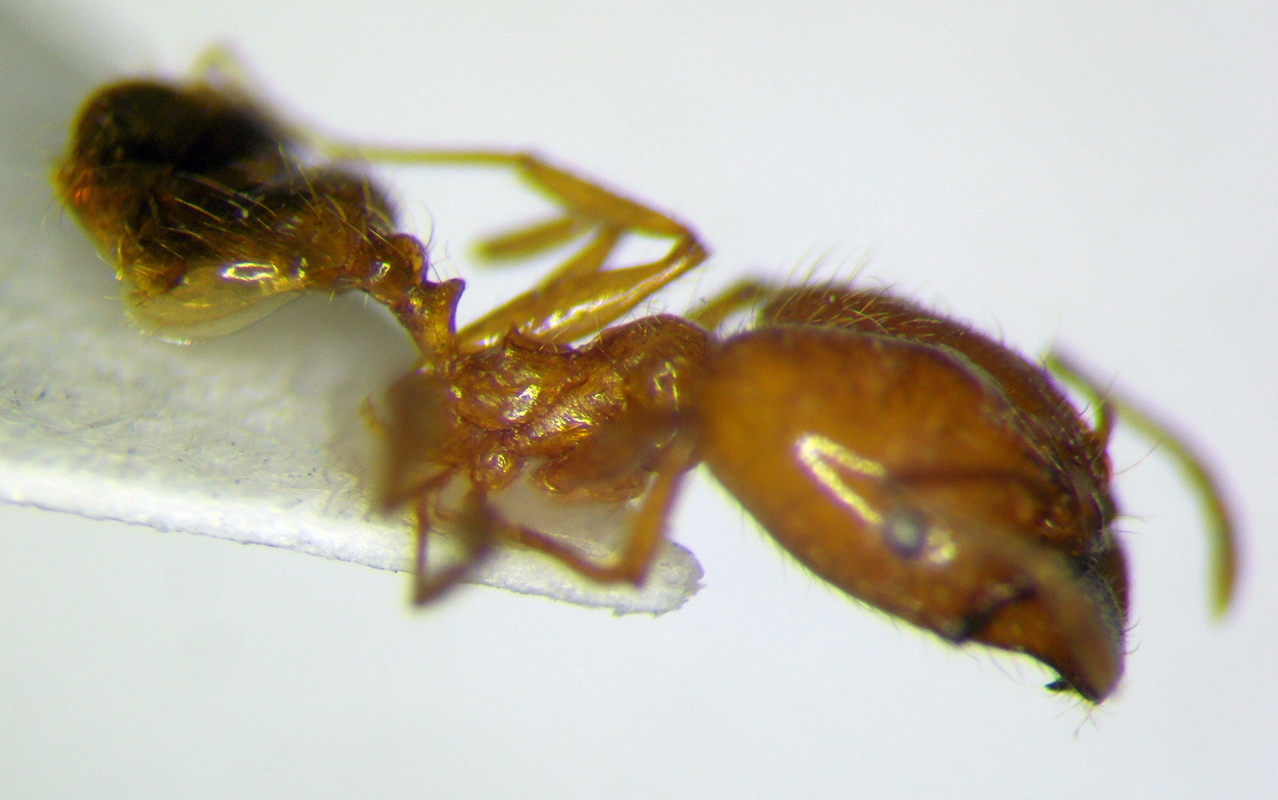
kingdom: Animalia
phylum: Arthropoda
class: Insecta
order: Hymenoptera
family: Formicidae
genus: Pheidole
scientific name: Pheidole pallidula
